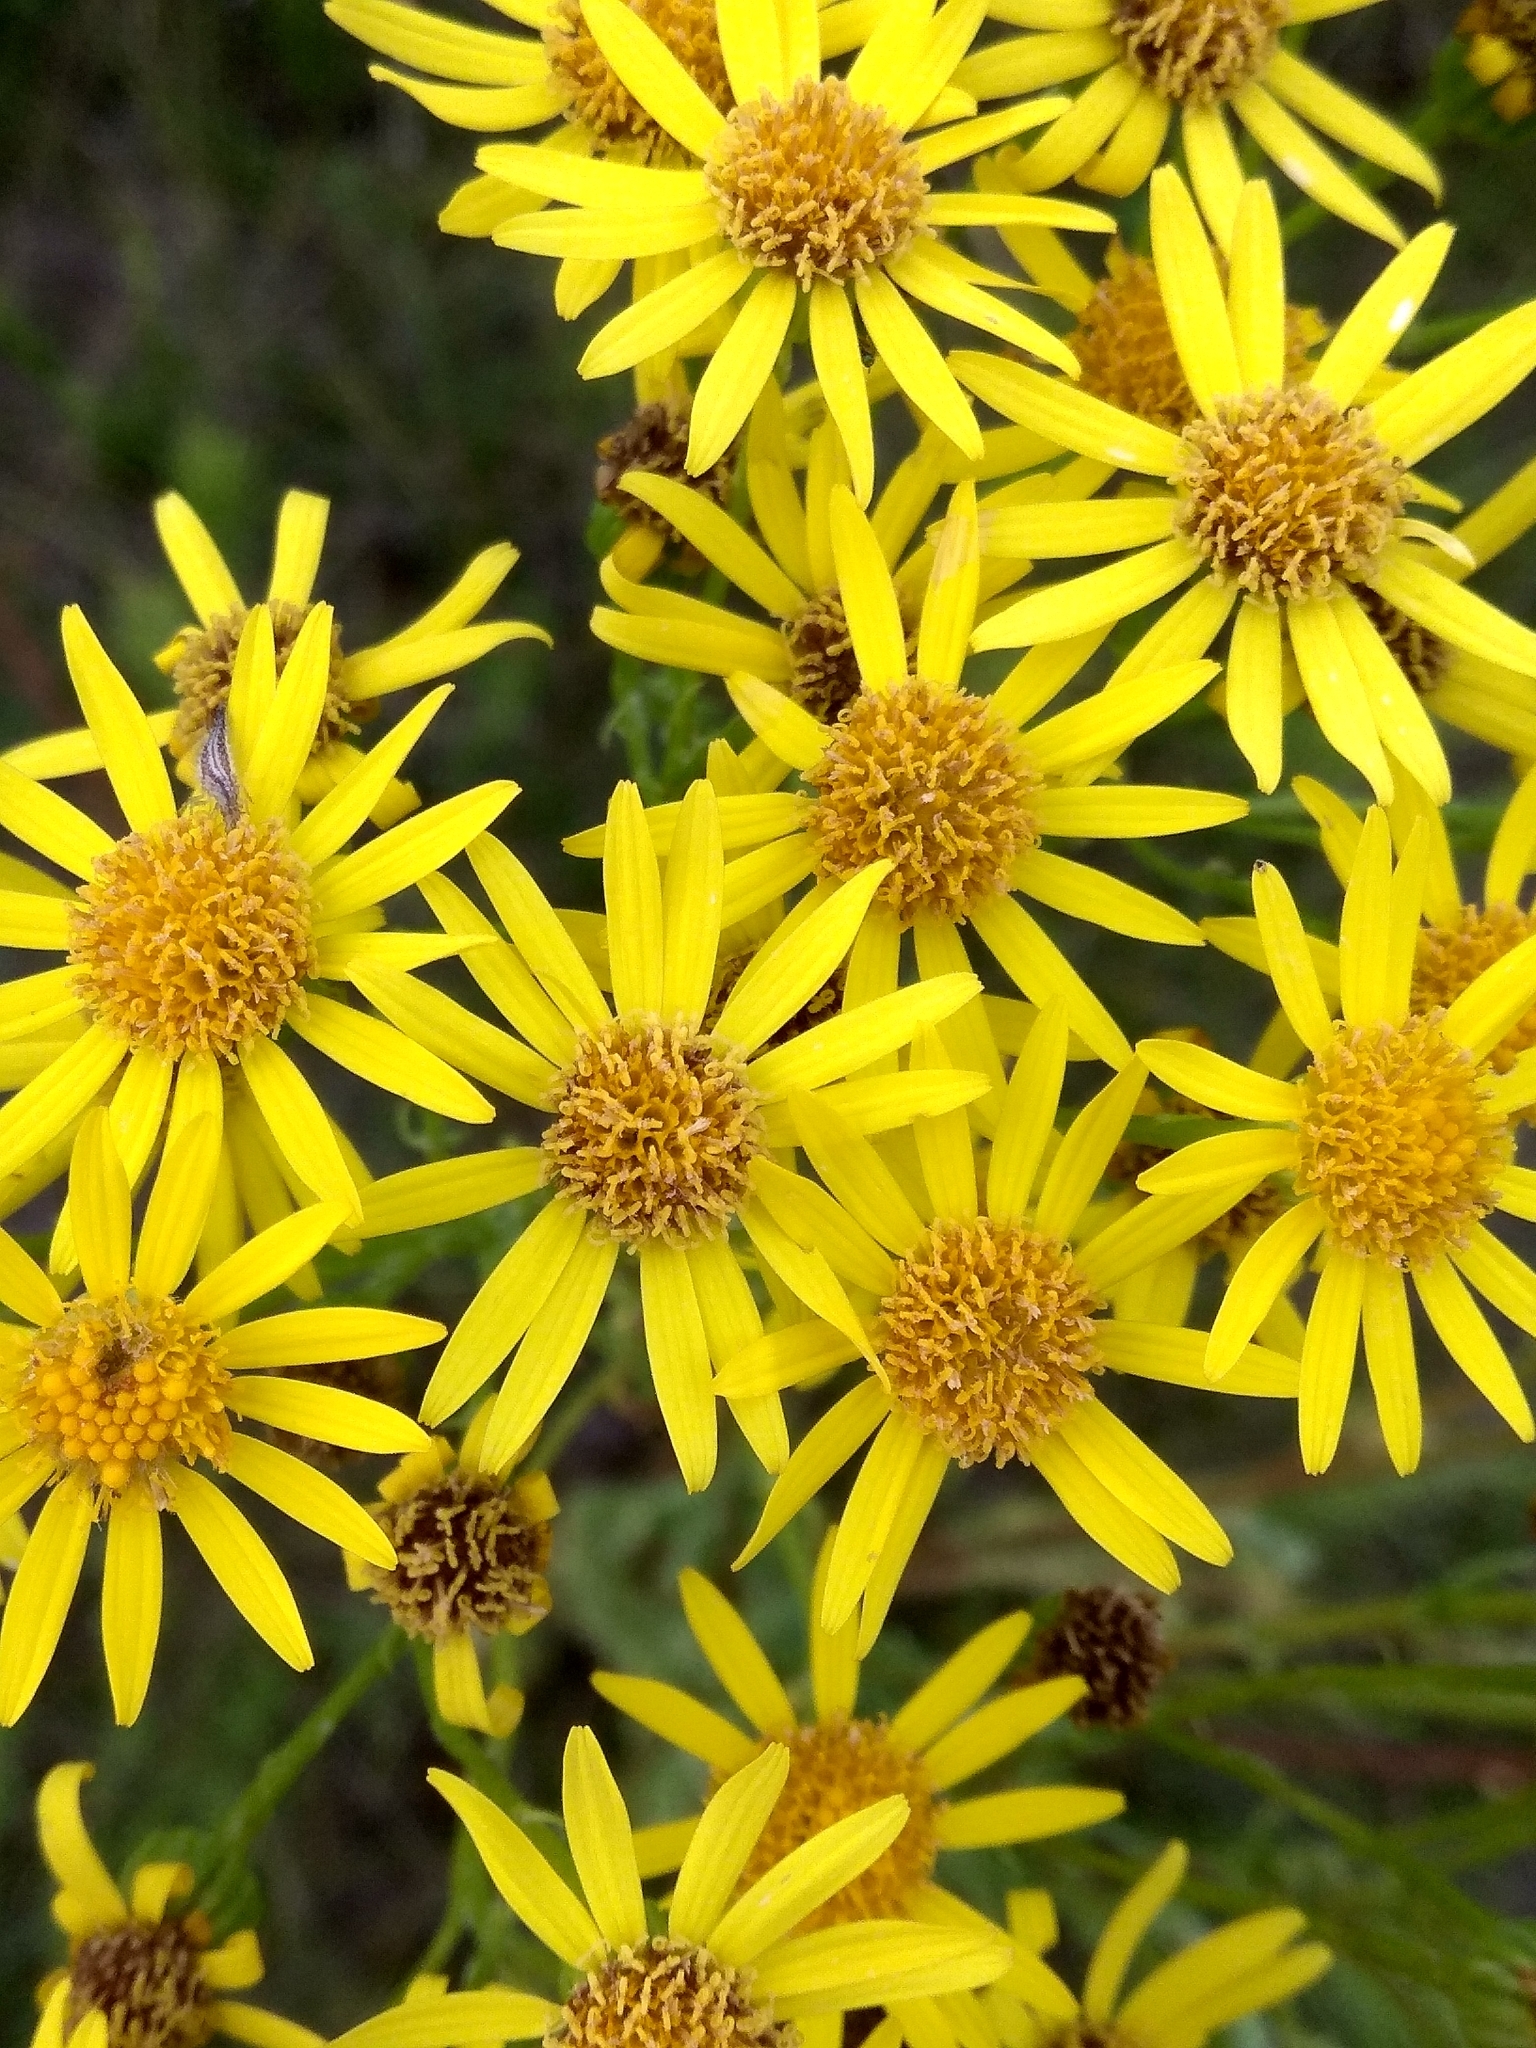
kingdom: Plantae
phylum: Tracheophyta
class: Magnoliopsida
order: Asterales
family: Asteraceae
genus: Jacobaea
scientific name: Jacobaea vulgaris
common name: Stinking willie
